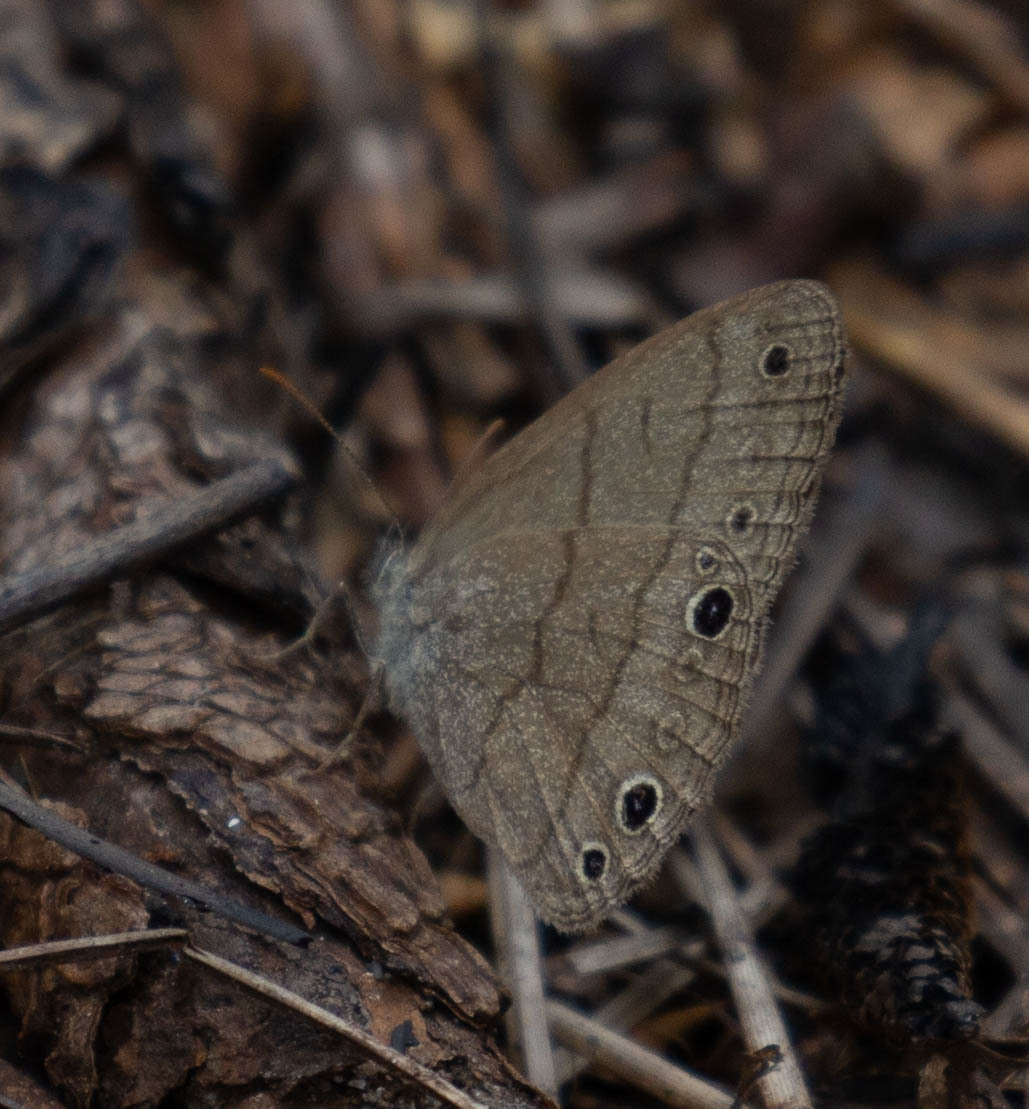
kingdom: Animalia
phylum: Arthropoda
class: Insecta
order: Lepidoptera
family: Nymphalidae
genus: Hermeuptychia
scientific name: Hermeuptychia hermes
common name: Hermes satyr
